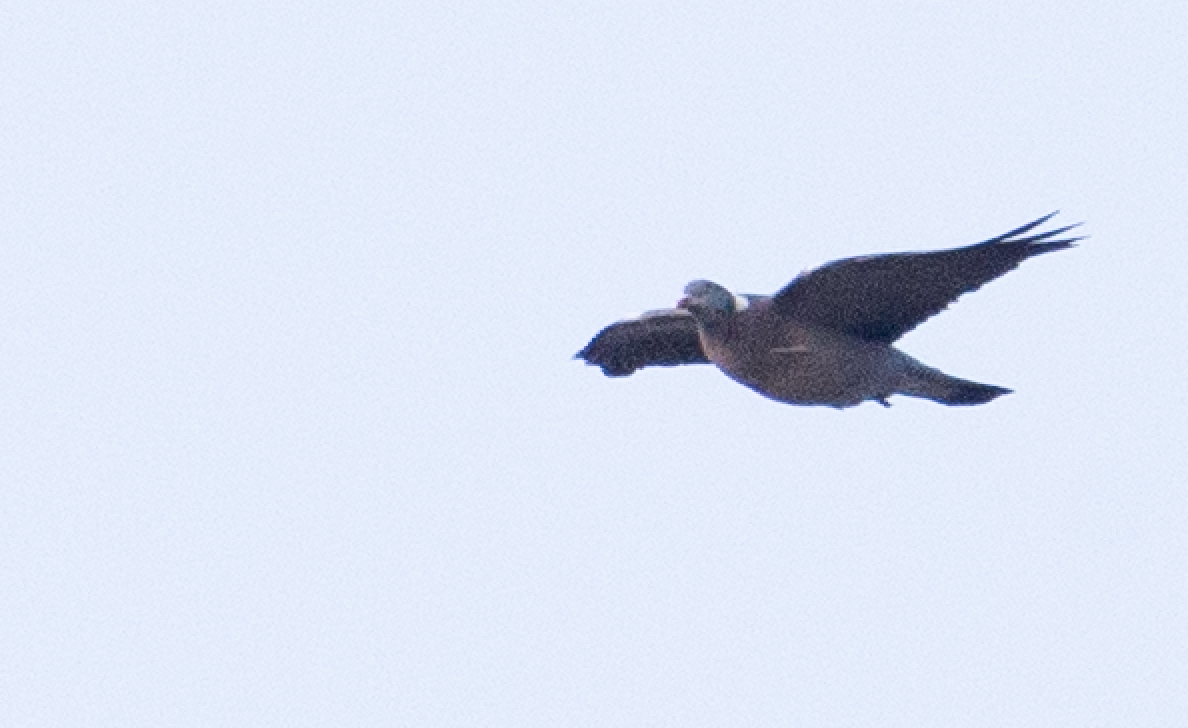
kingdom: Animalia
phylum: Chordata
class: Aves
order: Columbiformes
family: Columbidae
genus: Columba
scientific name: Columba palumbus
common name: Common wood pigeon
